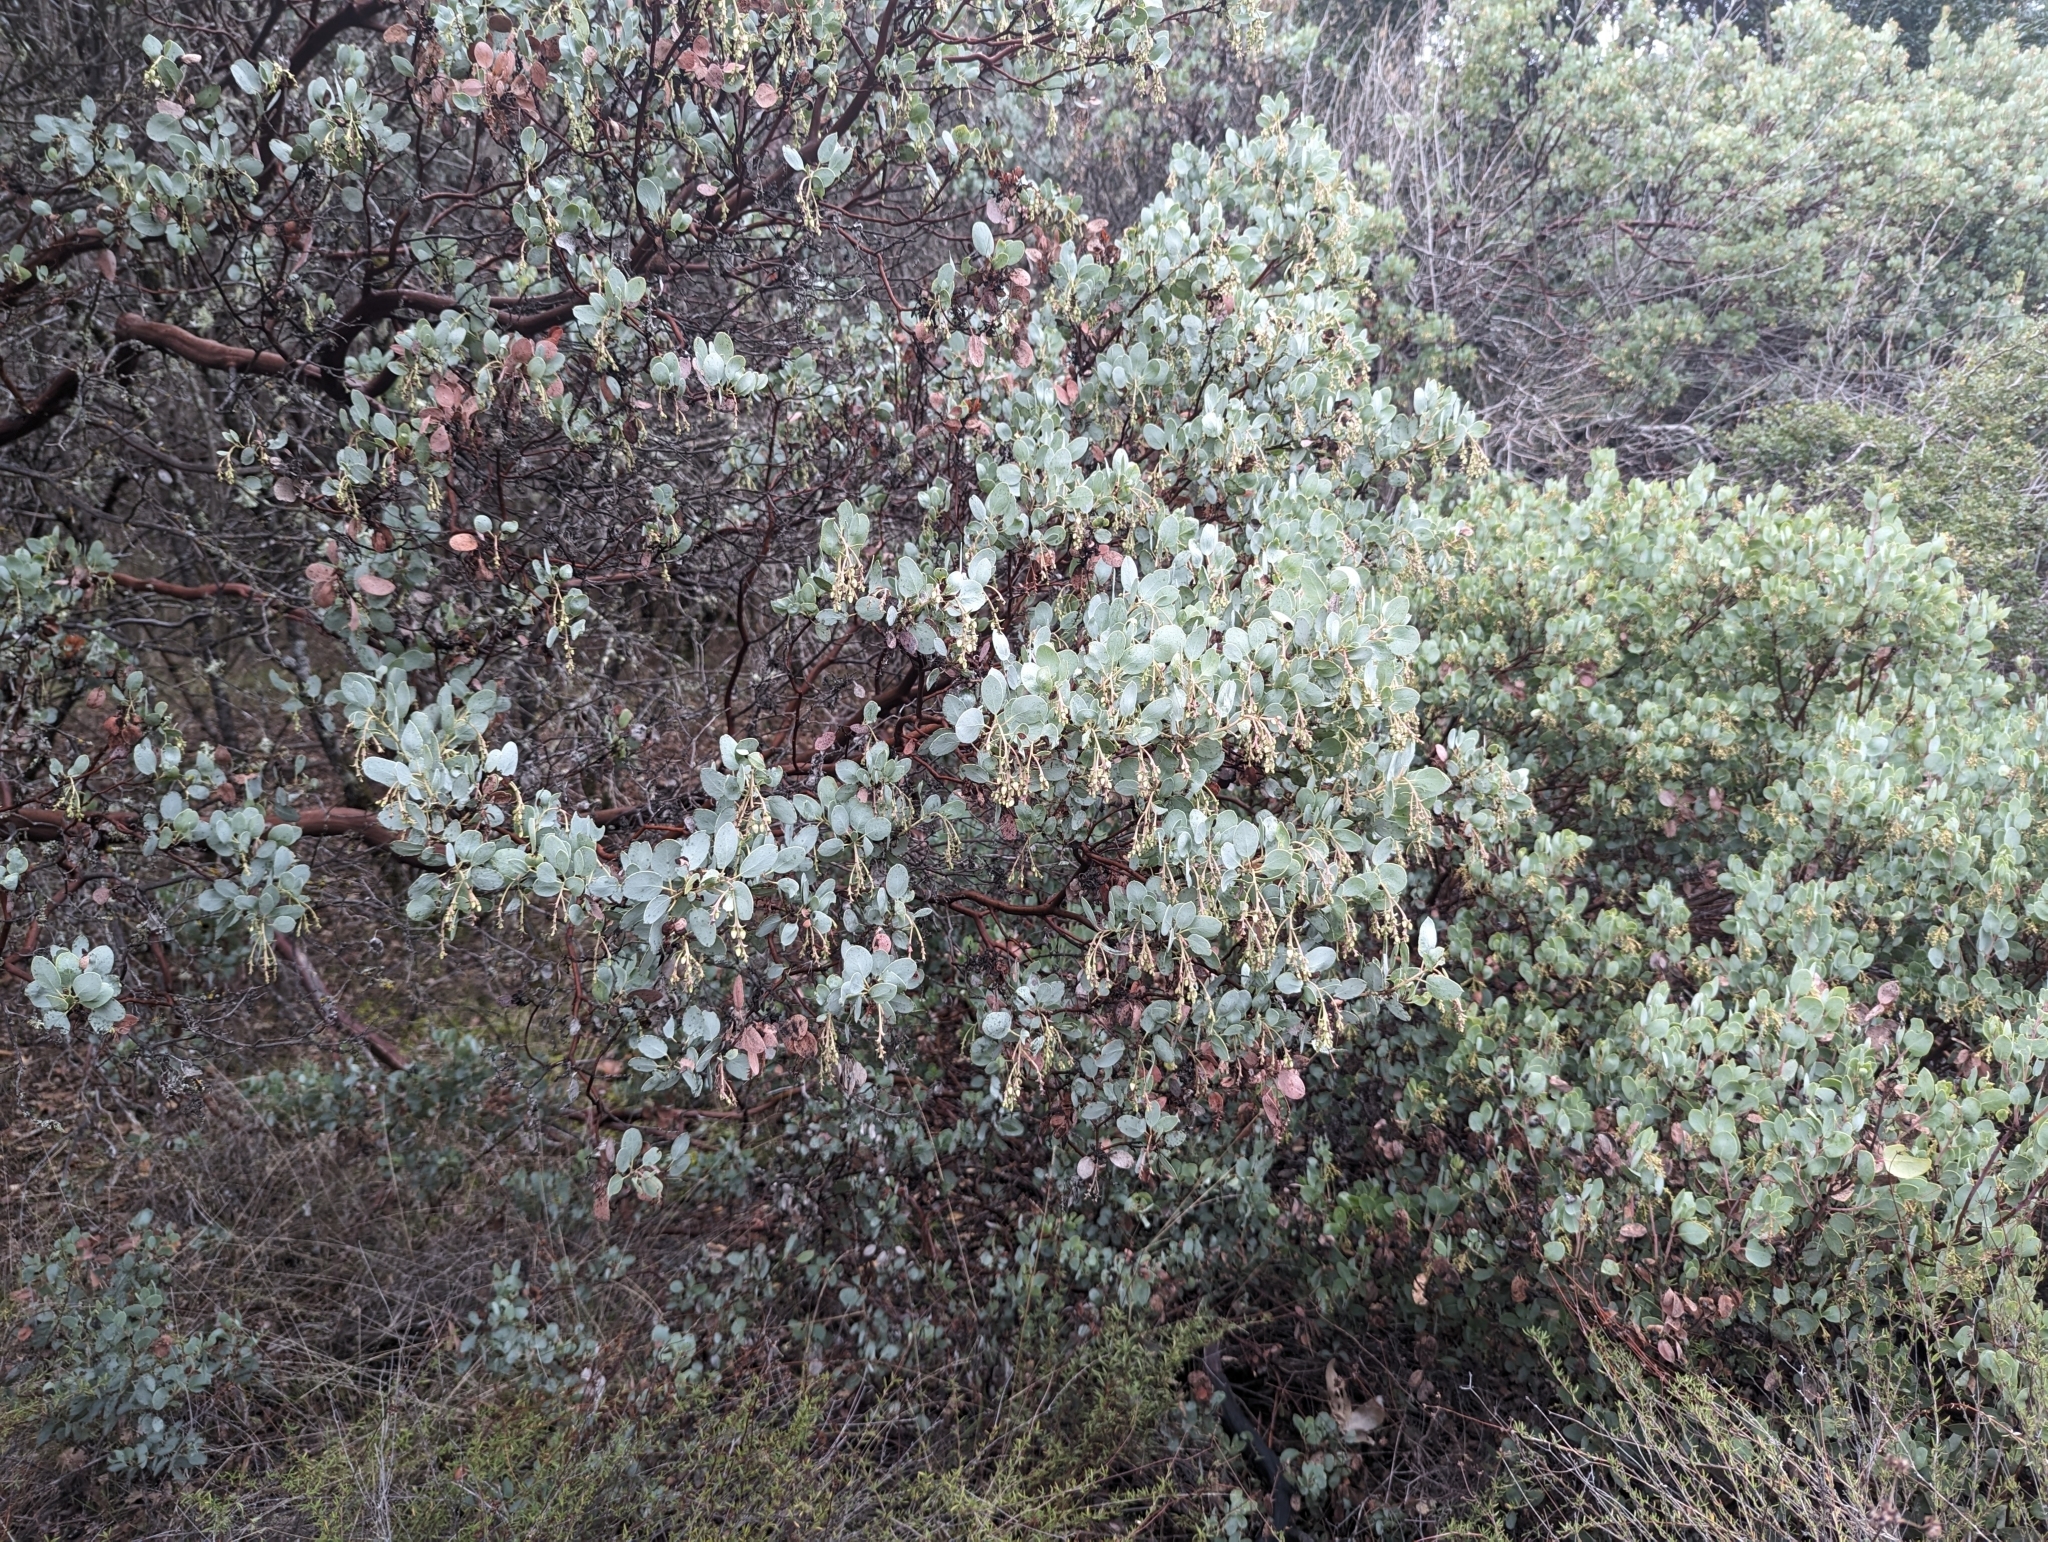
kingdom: Plantae
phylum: Tracheophyta
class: Magnoliopsida
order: Ericales
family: Ericaceae
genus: Arctostaphylos
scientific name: Arctostaphylos glauca
